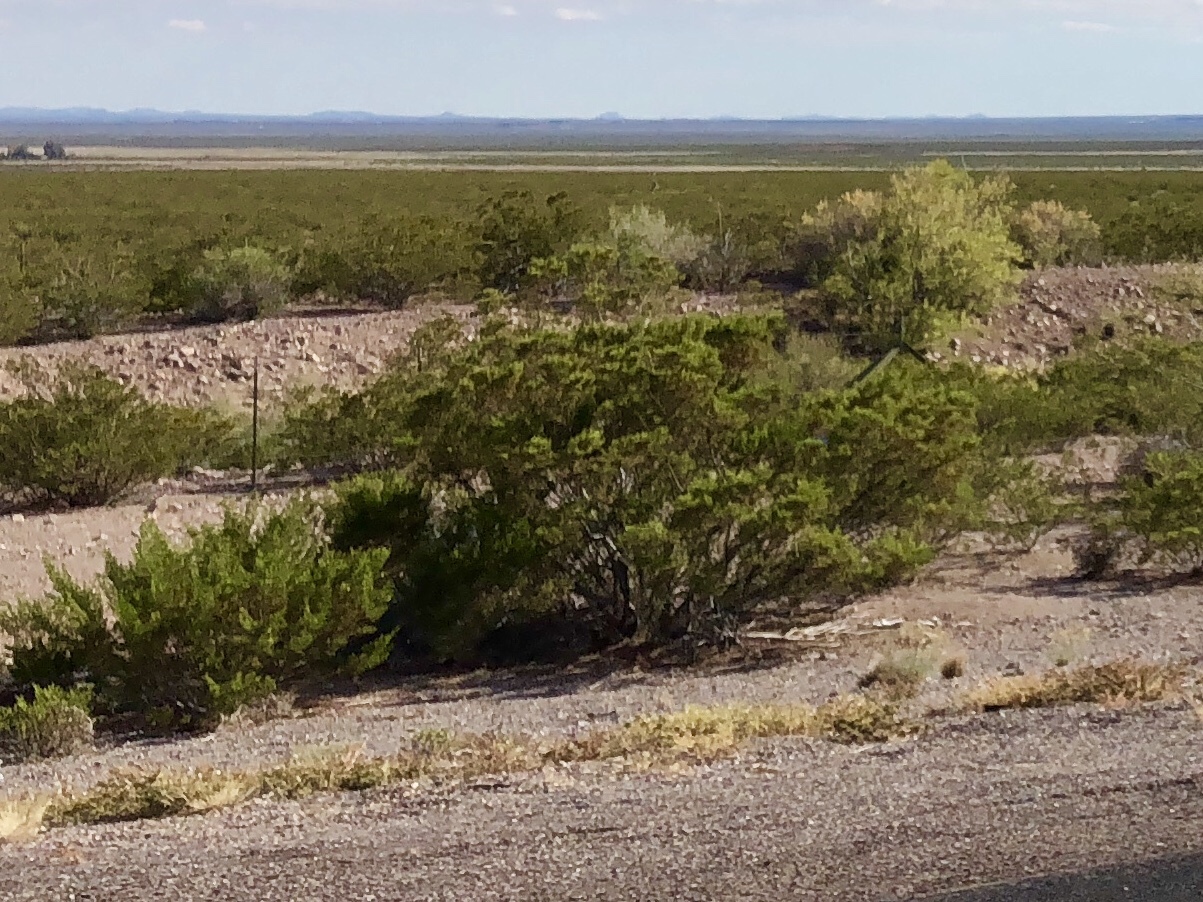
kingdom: Plantae
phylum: Tracheophyta
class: Magnoliopsida
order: Zygophyllales
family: Zygophyllaceae
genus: Larrea
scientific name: Larrea tridentata
